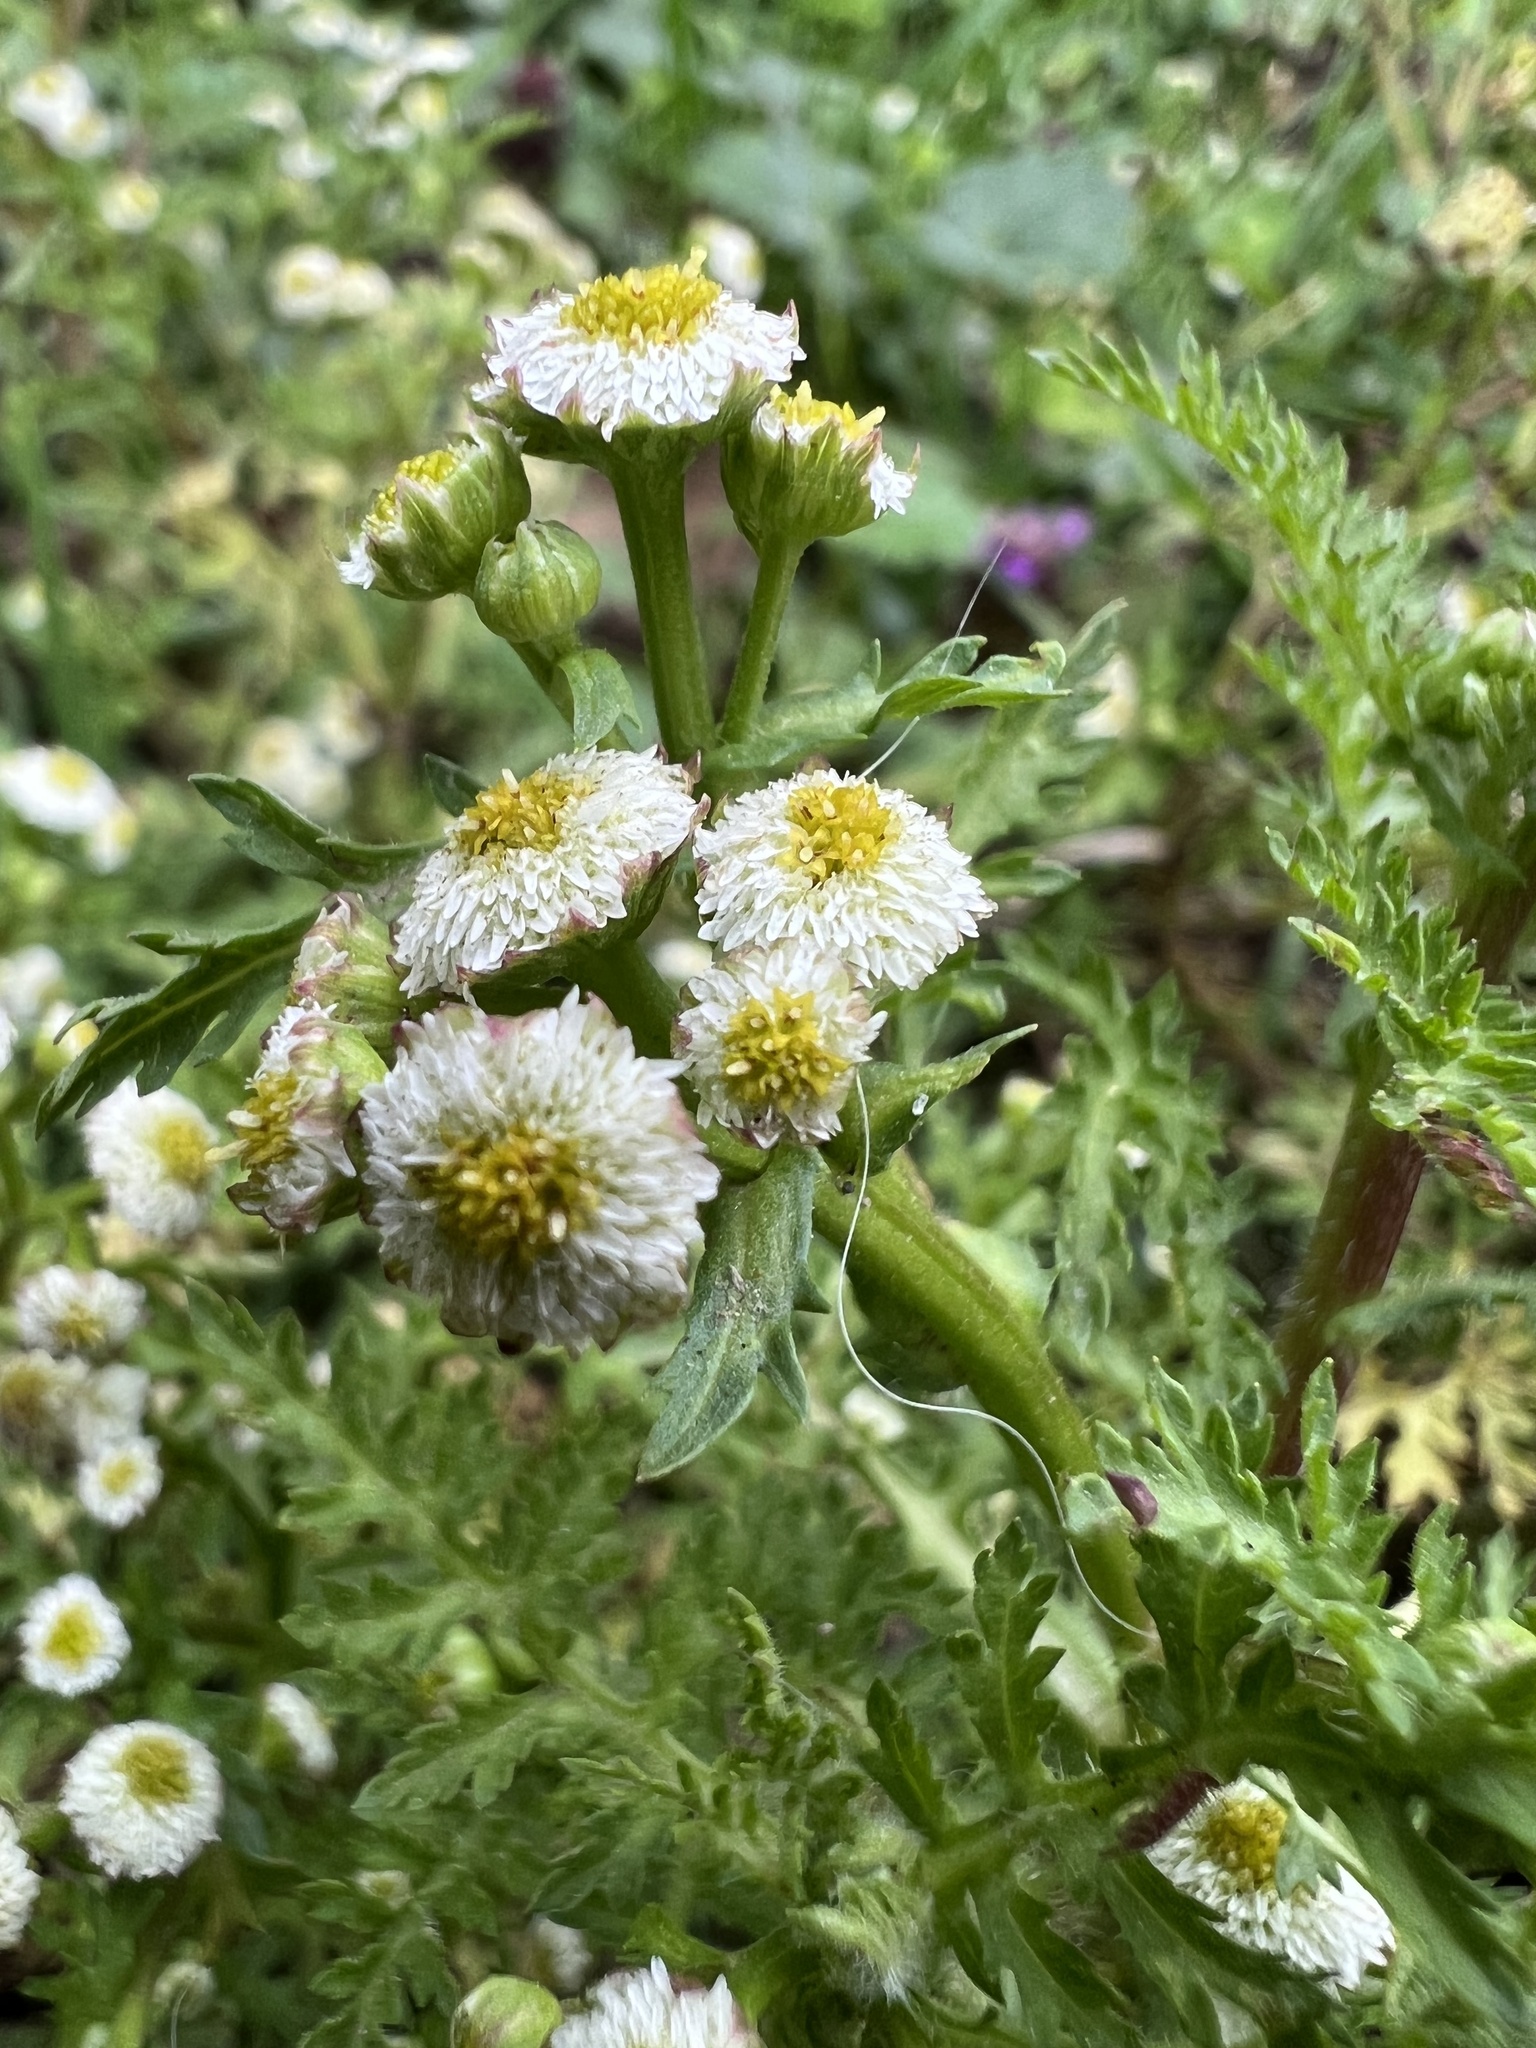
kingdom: Plantae
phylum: Tracheophyta
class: Magnoliopsida
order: Asterales
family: Asteraceae
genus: Plagiocheilus
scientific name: Plagiocheilus bogotensis
